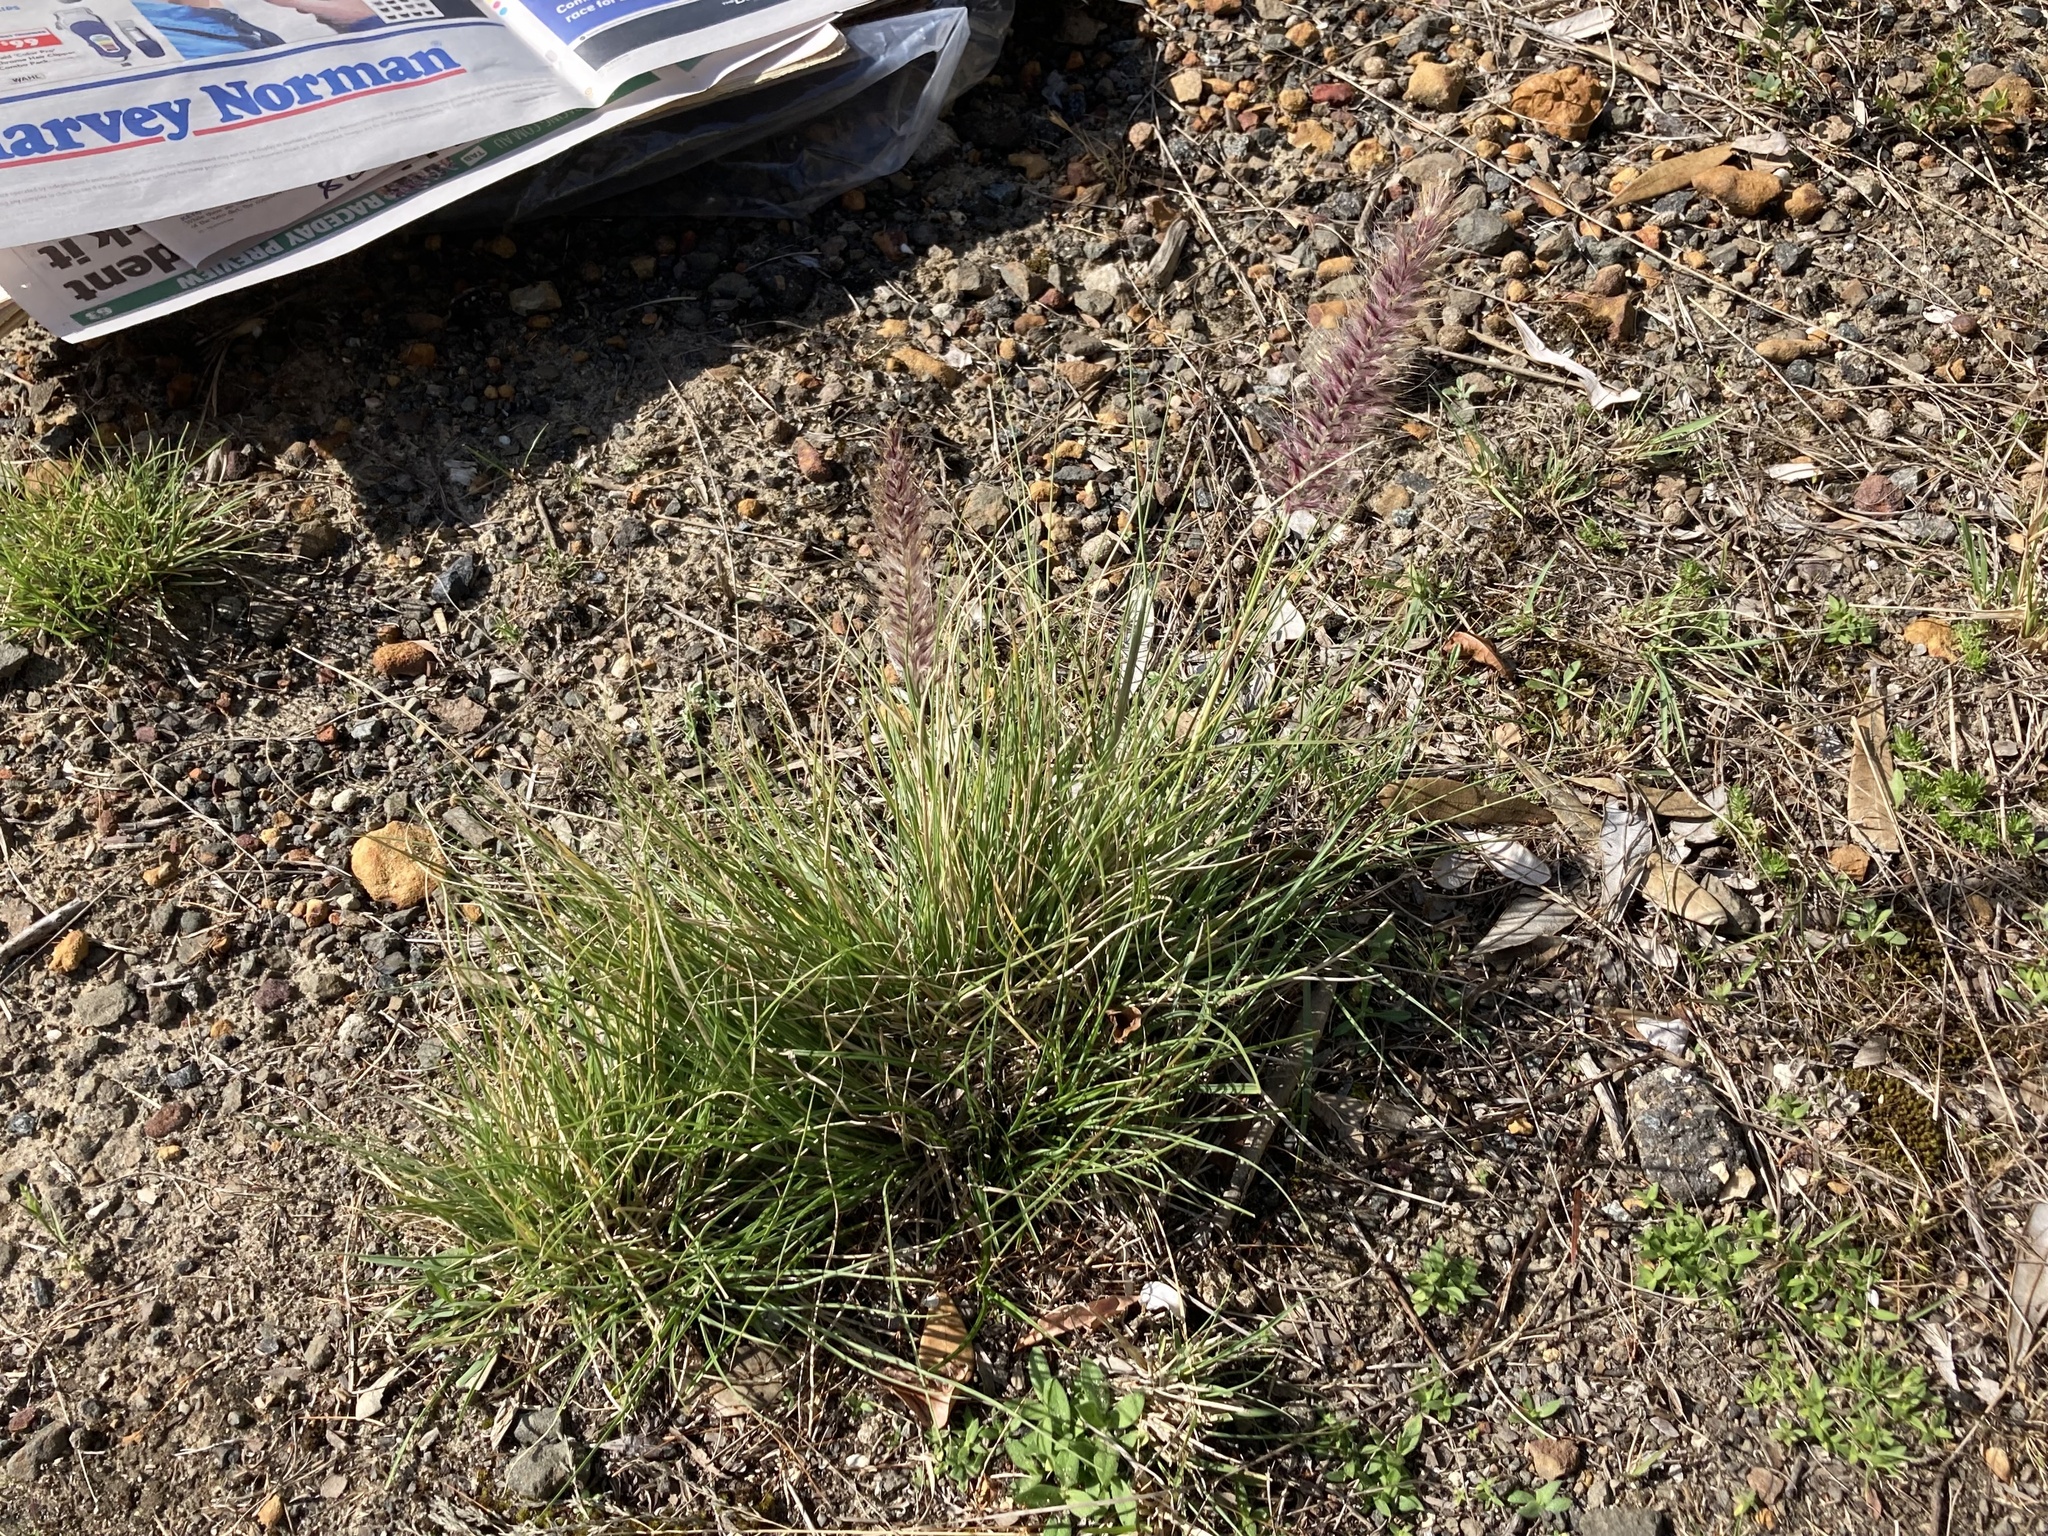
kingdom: Plantae
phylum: Tracheophyta
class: Liliopsida
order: Poales
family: Poaceae
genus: Cenchrus
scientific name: Cenchrus setaceus
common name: Crimson fountaingrass
